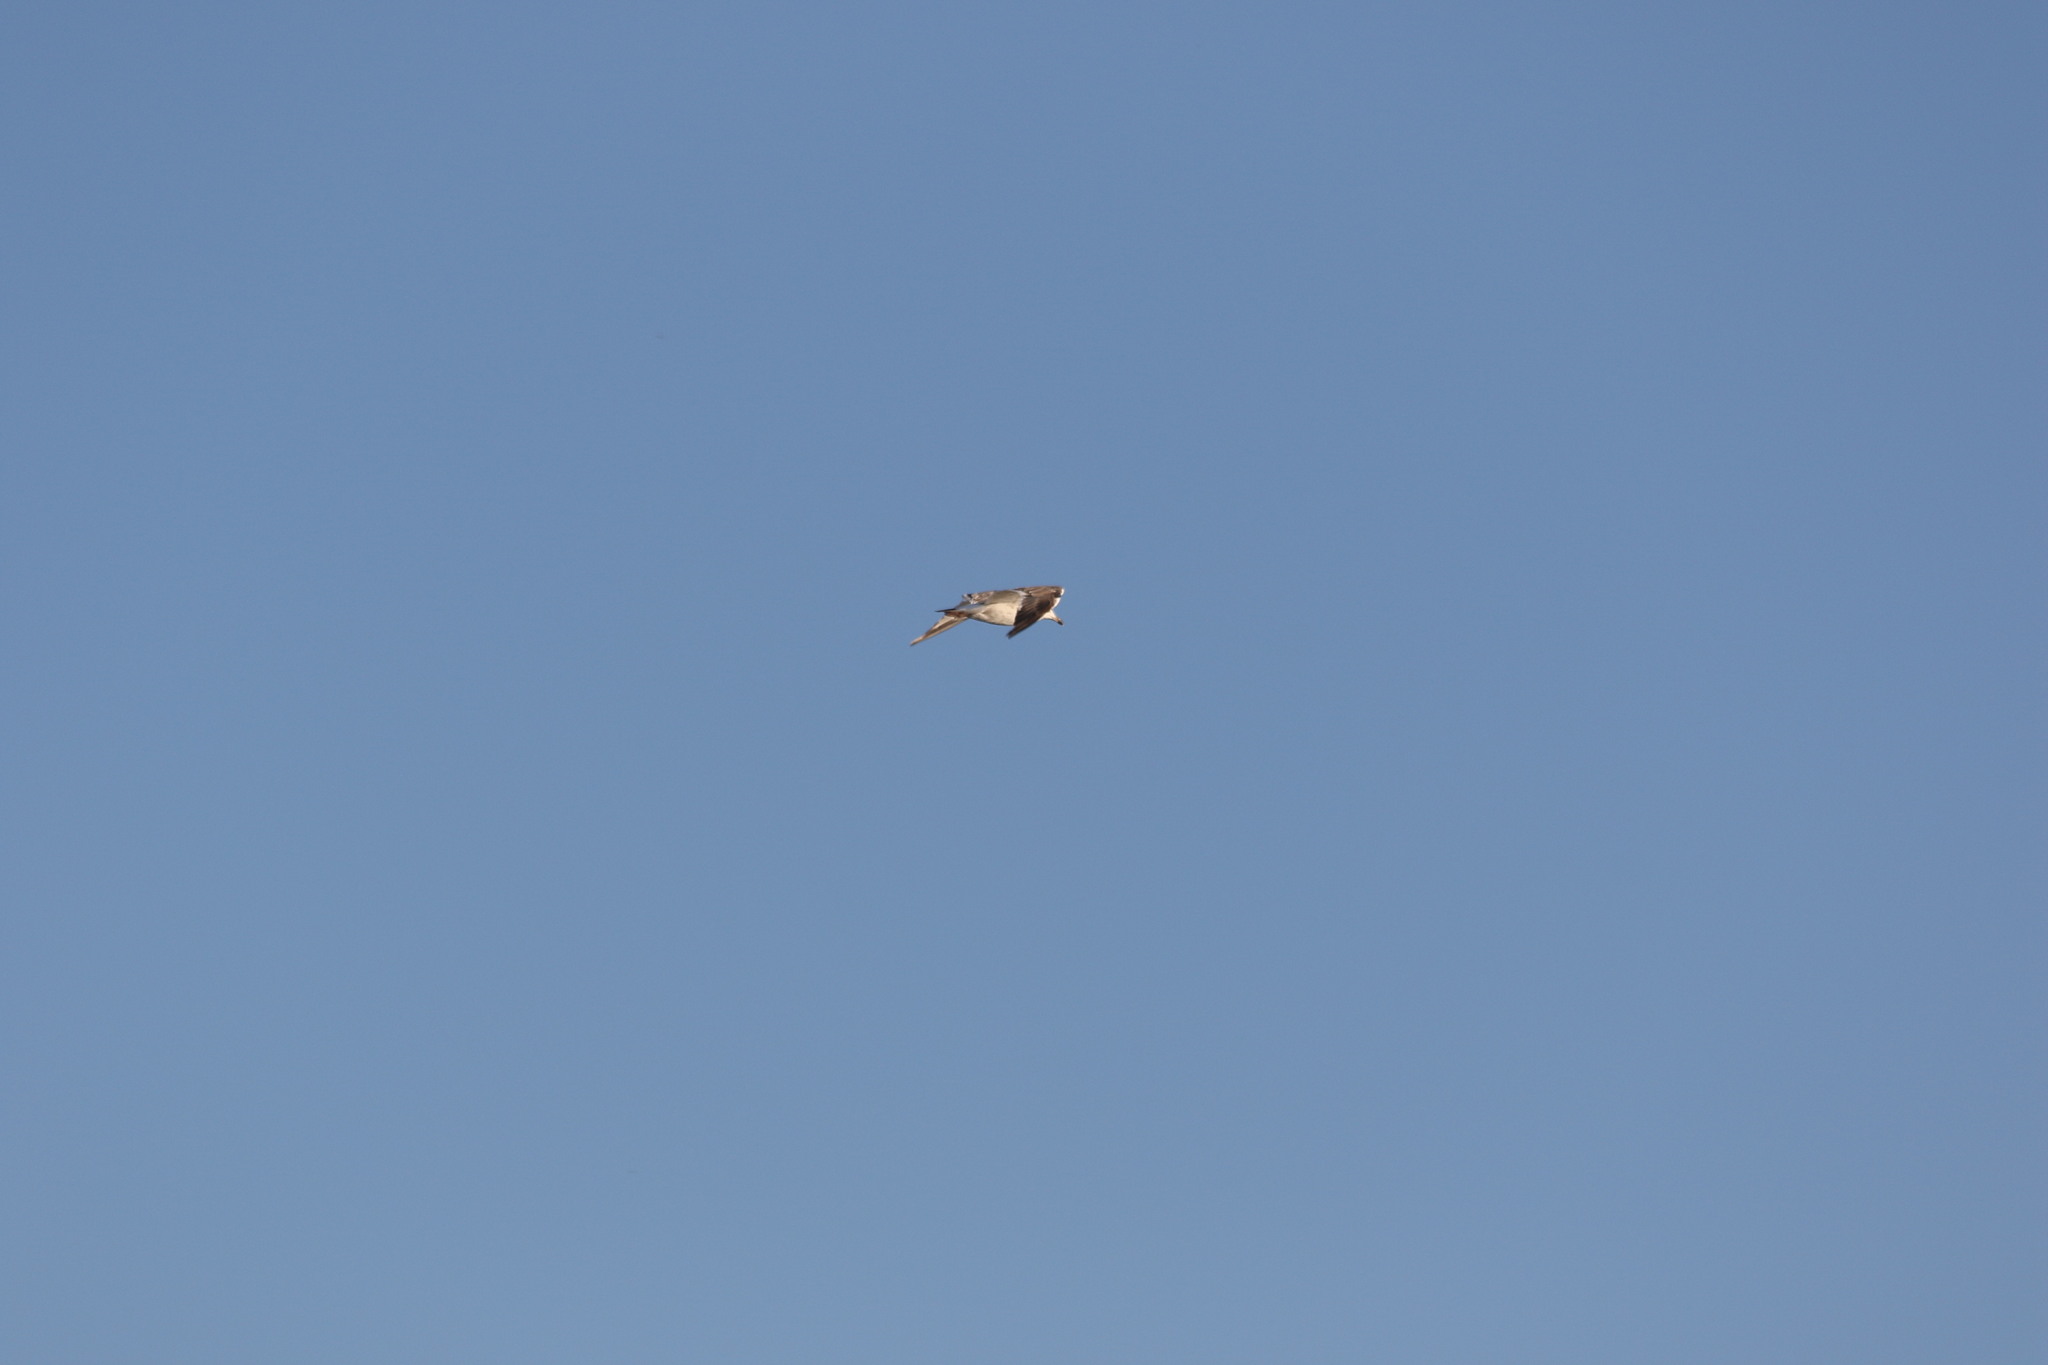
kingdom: Animalia
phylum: Chordata
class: Aves
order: Charadriiformes
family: Laridae
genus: Larus
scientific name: Larus fuscus
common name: Lesser black-backed gull
